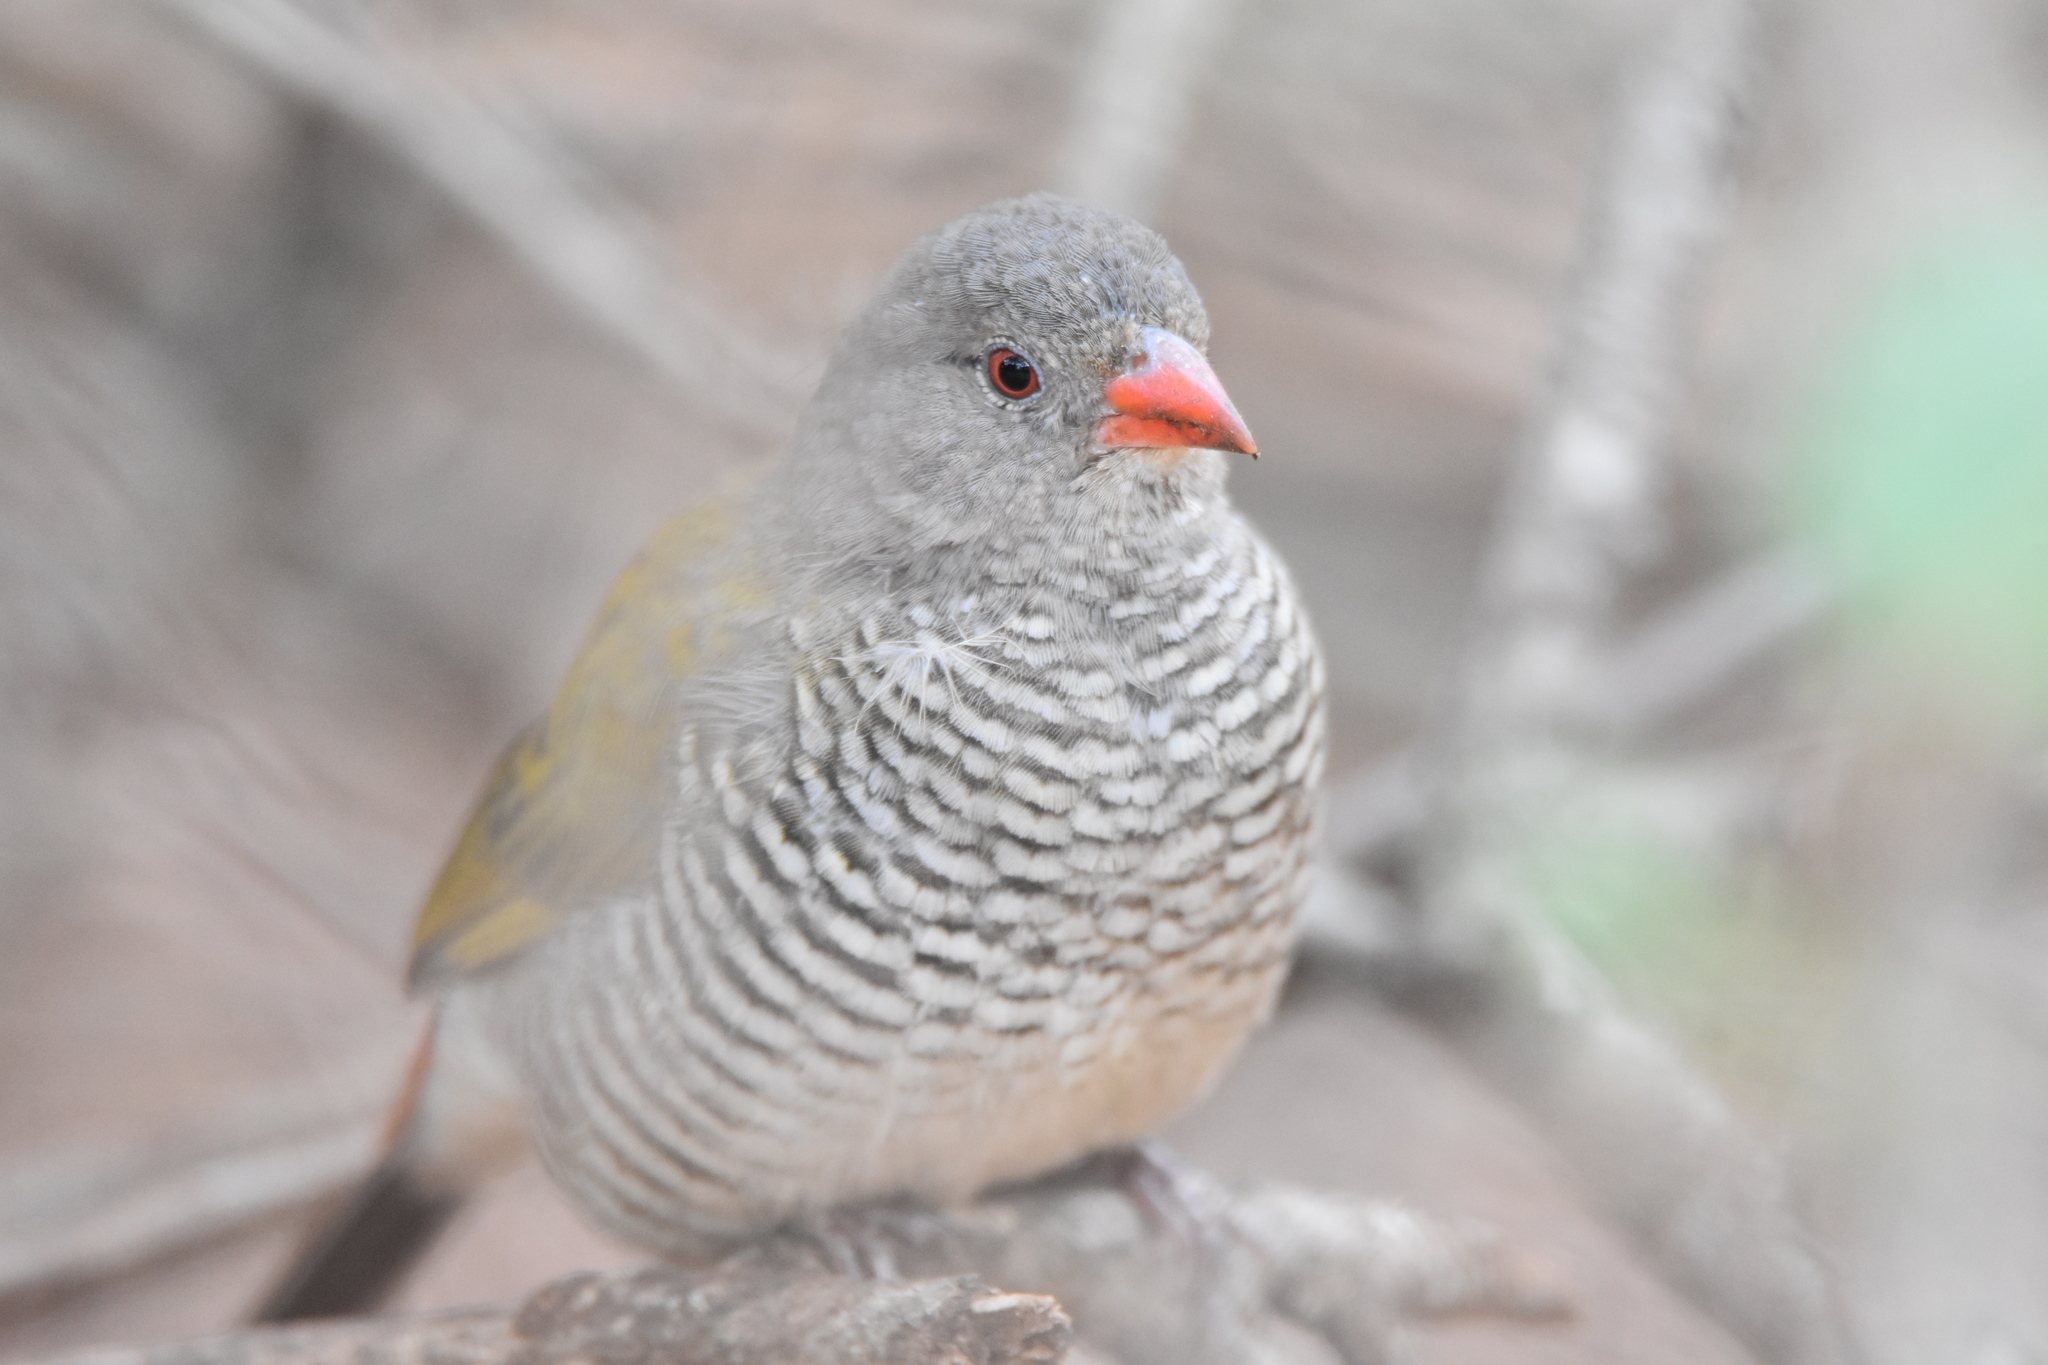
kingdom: Animalia
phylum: Chordata
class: Aves
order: Passeriformes
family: Estrildidae
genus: Pytilia
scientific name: Pytilia melba
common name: Green-winged pytilia
